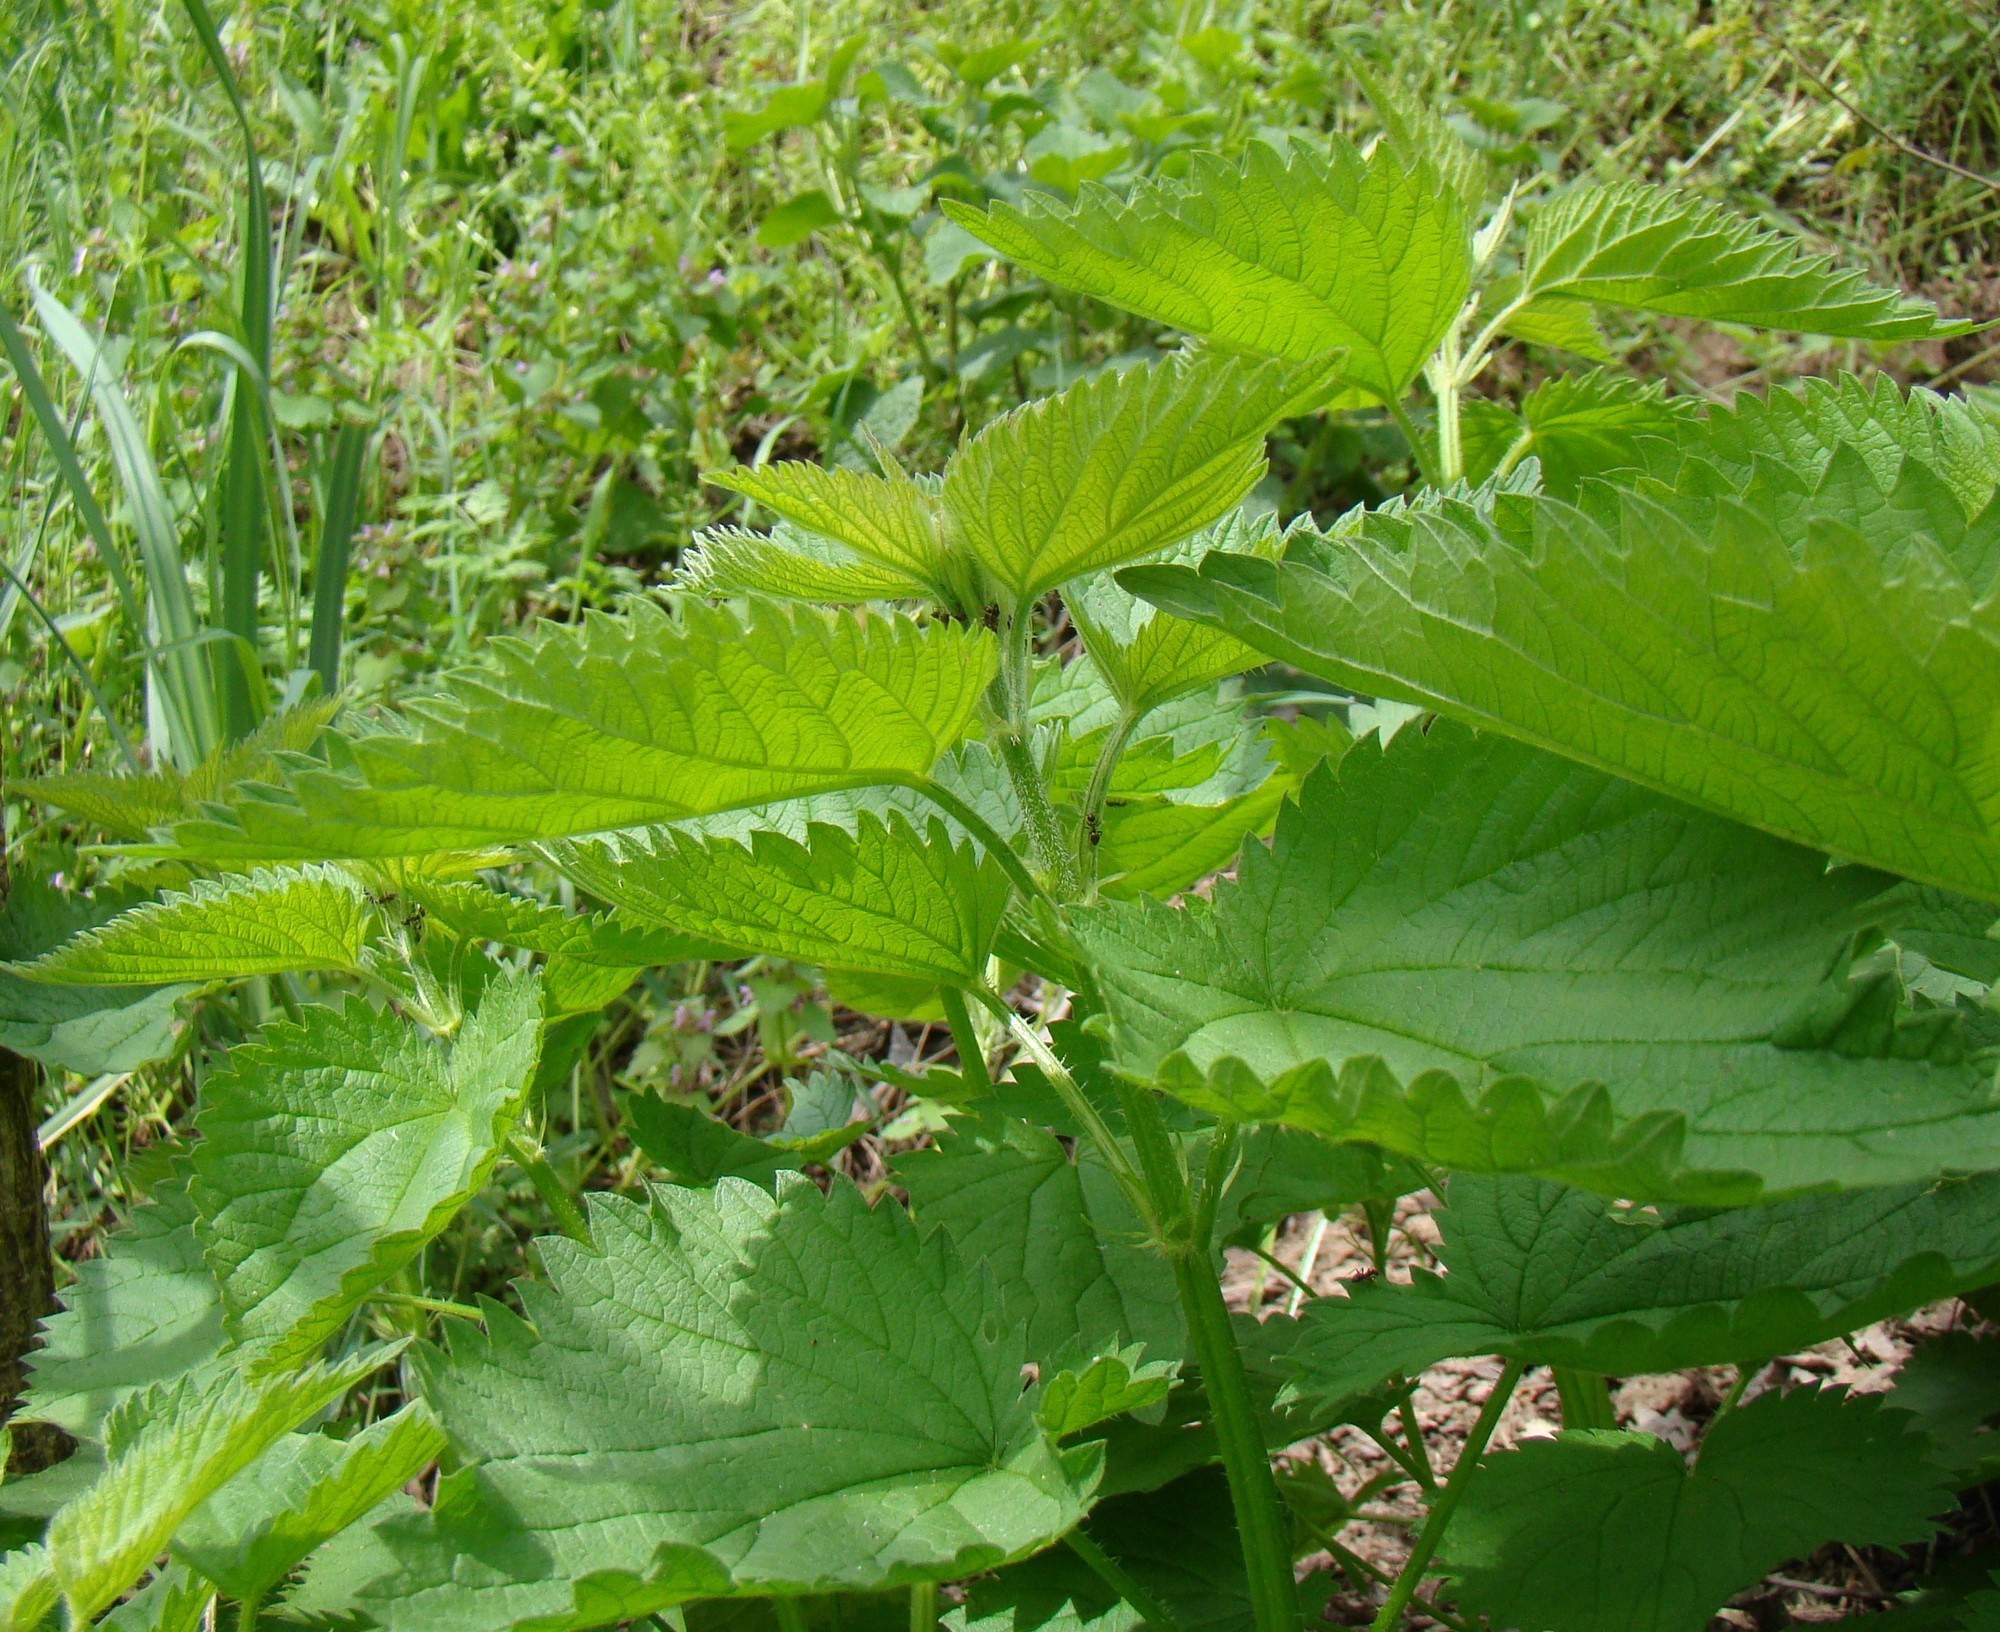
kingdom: Plantae
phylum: Tracheophyta
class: Magnoliopsida
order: Rosales
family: Urticaceae
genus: Urtica
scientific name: Urtica dioica
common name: Common nettle
